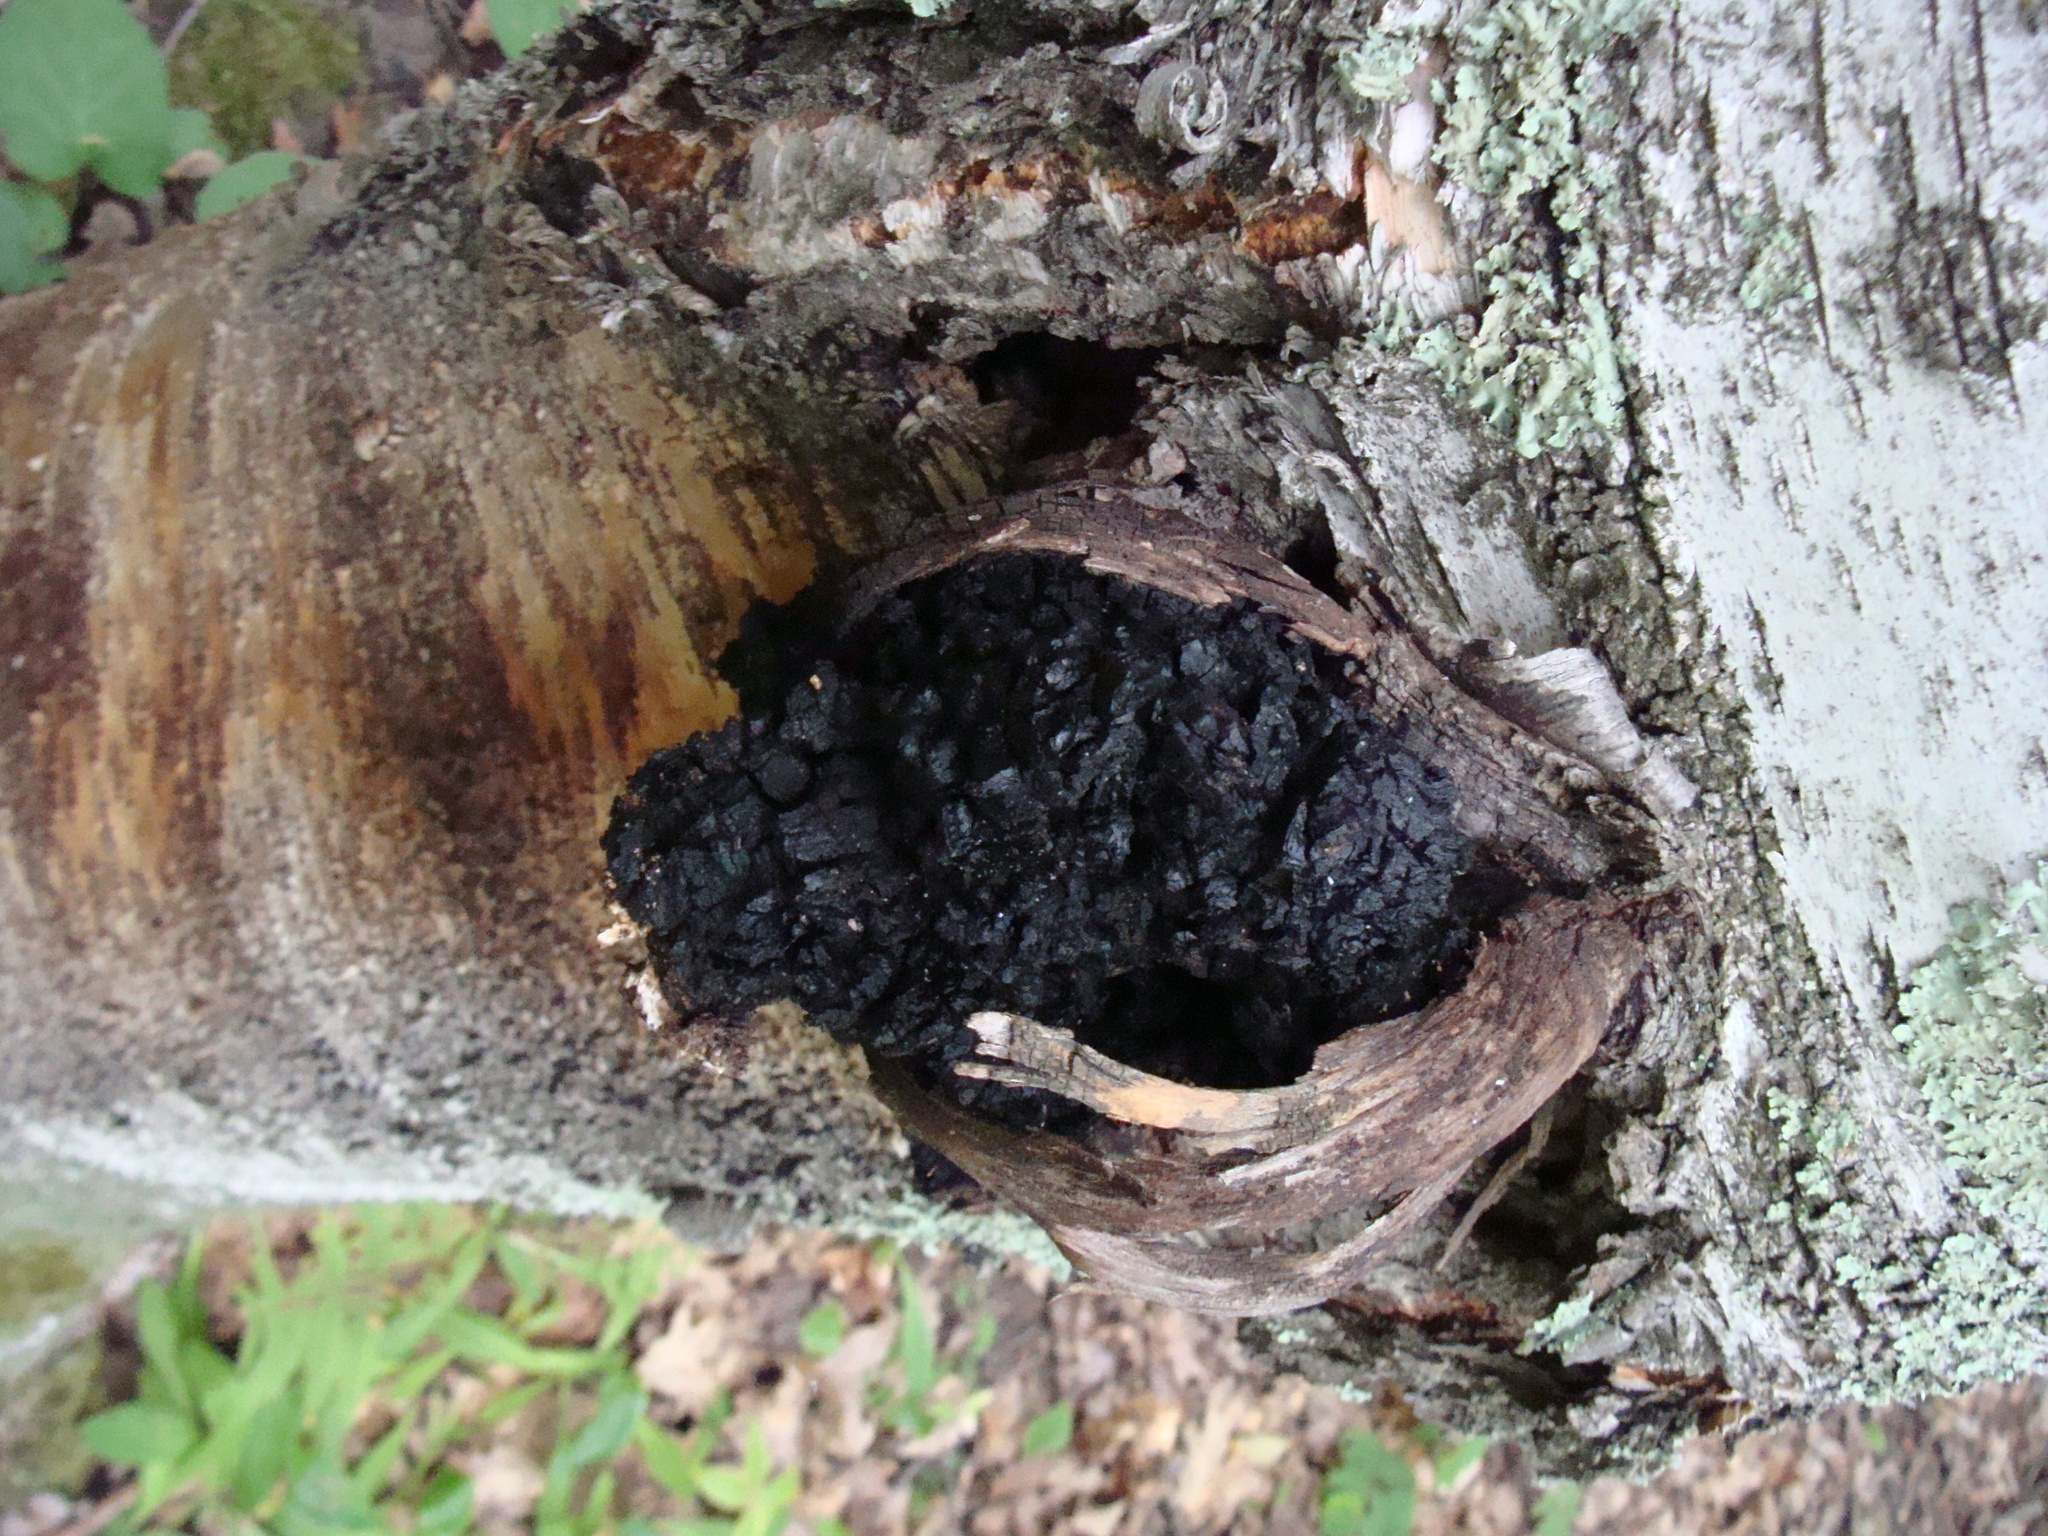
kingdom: Fungi
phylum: Basidiomycota
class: Agaricomycetes
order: Hymenochaetales
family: Hymenochaetaceae
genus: Inonotus
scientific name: Inonotus obliquus
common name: Chaga
